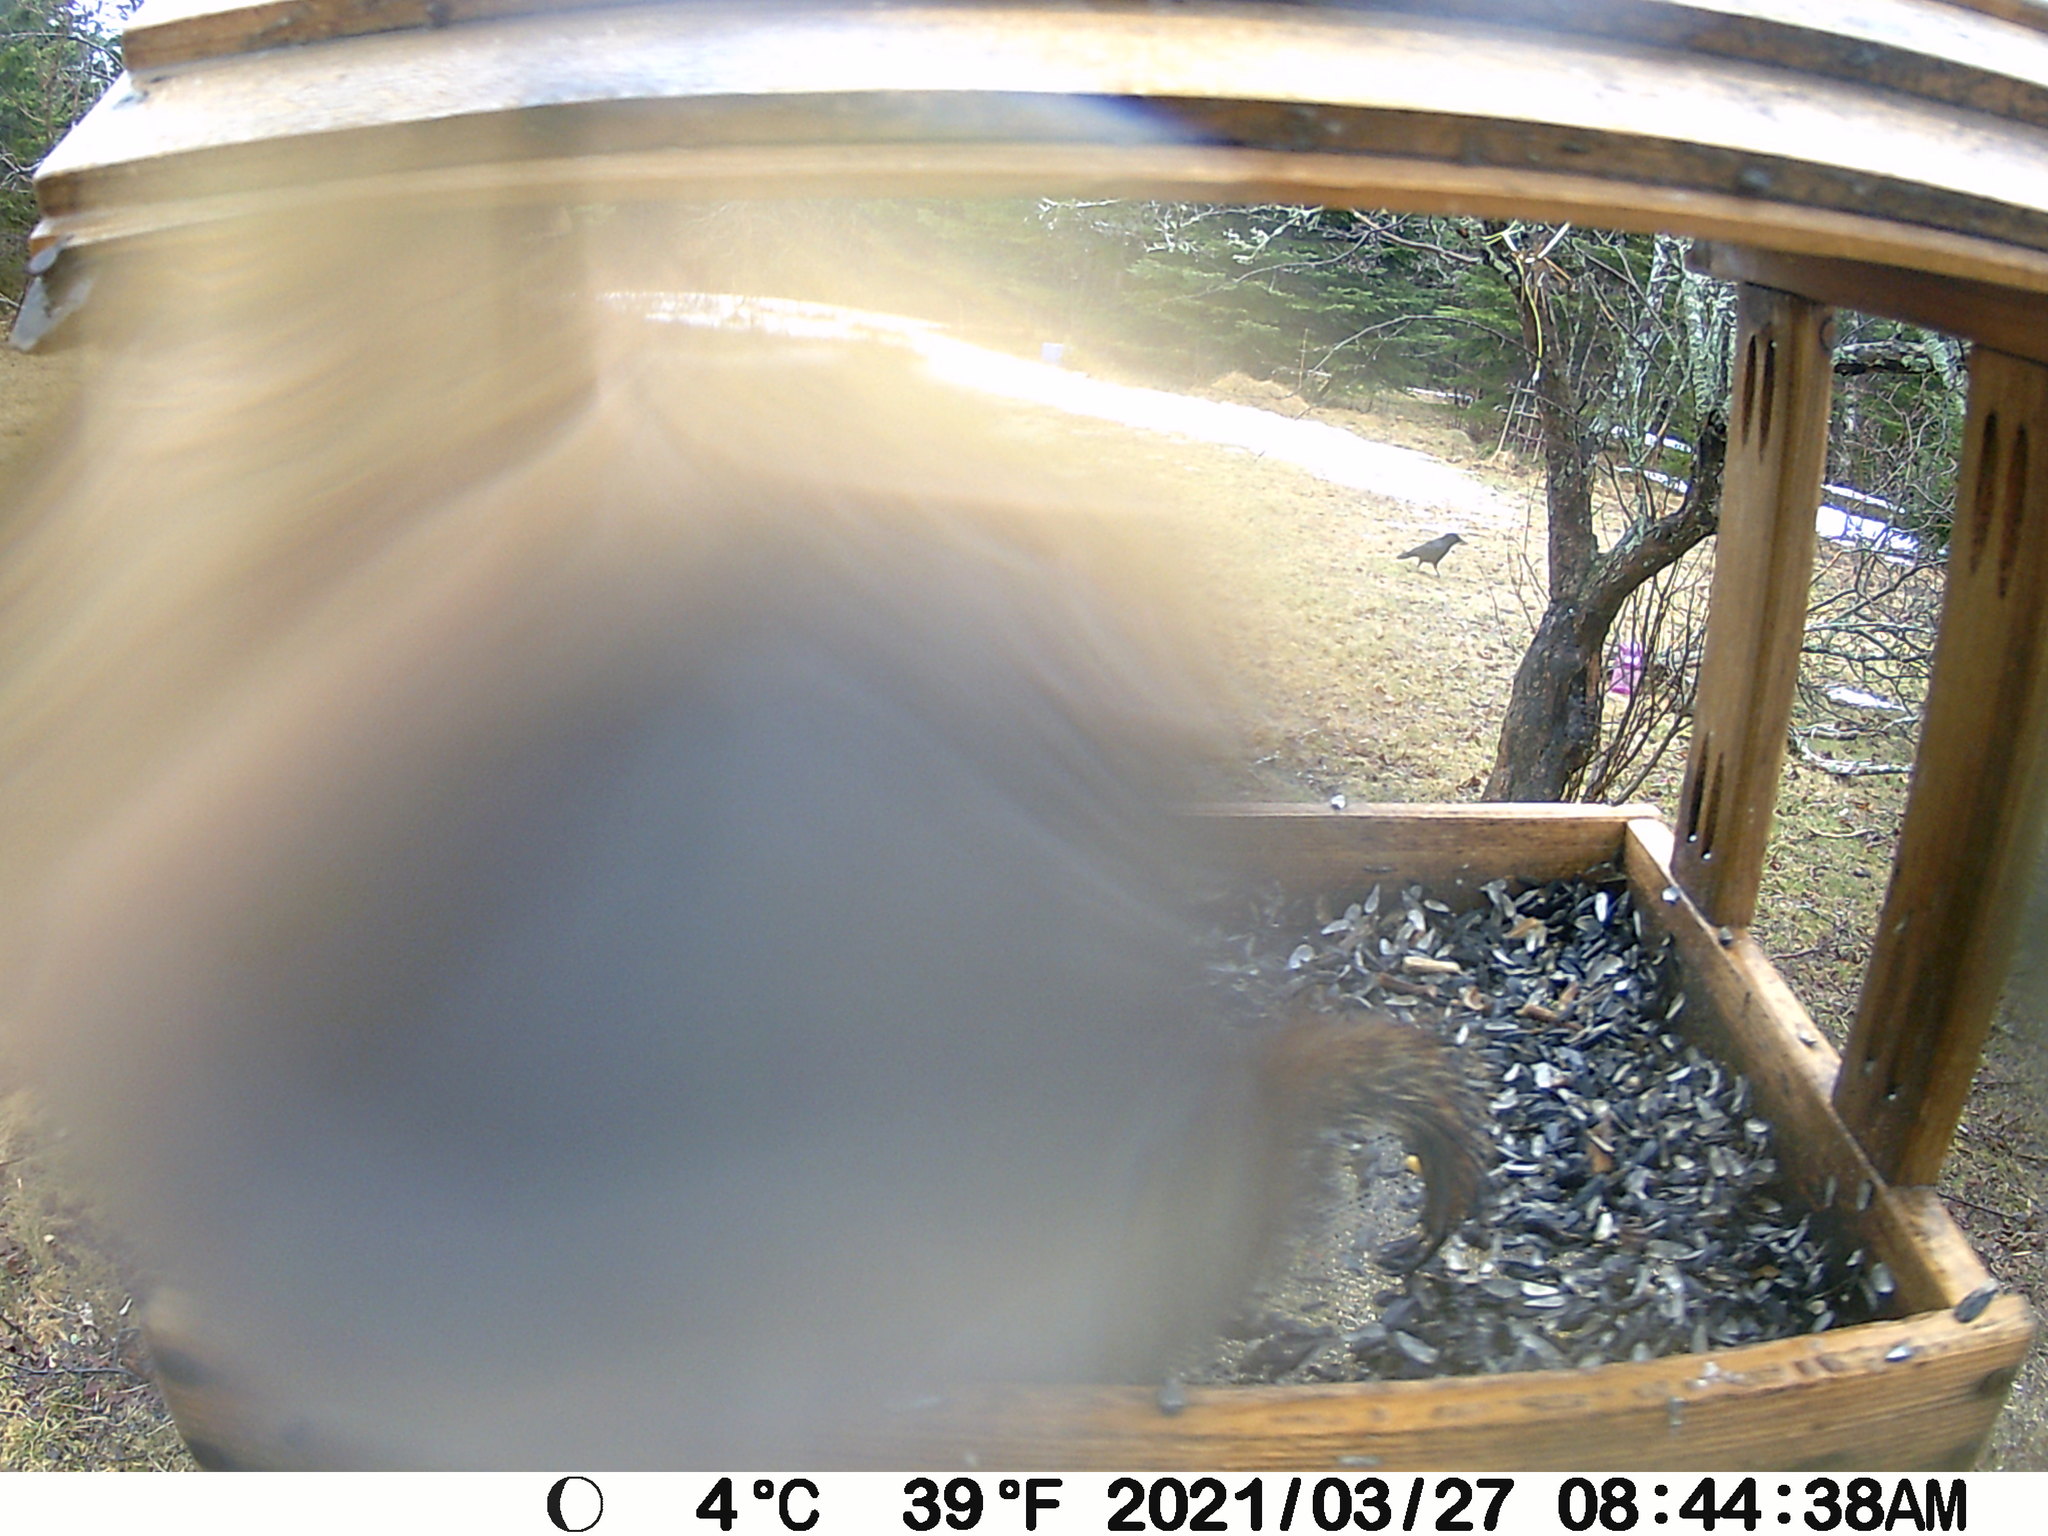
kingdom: Animalia
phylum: Chordata
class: Aves
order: Passeriformes
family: Corvidae
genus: Corvus
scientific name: Corvus brachyrhynchos
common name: American crow
